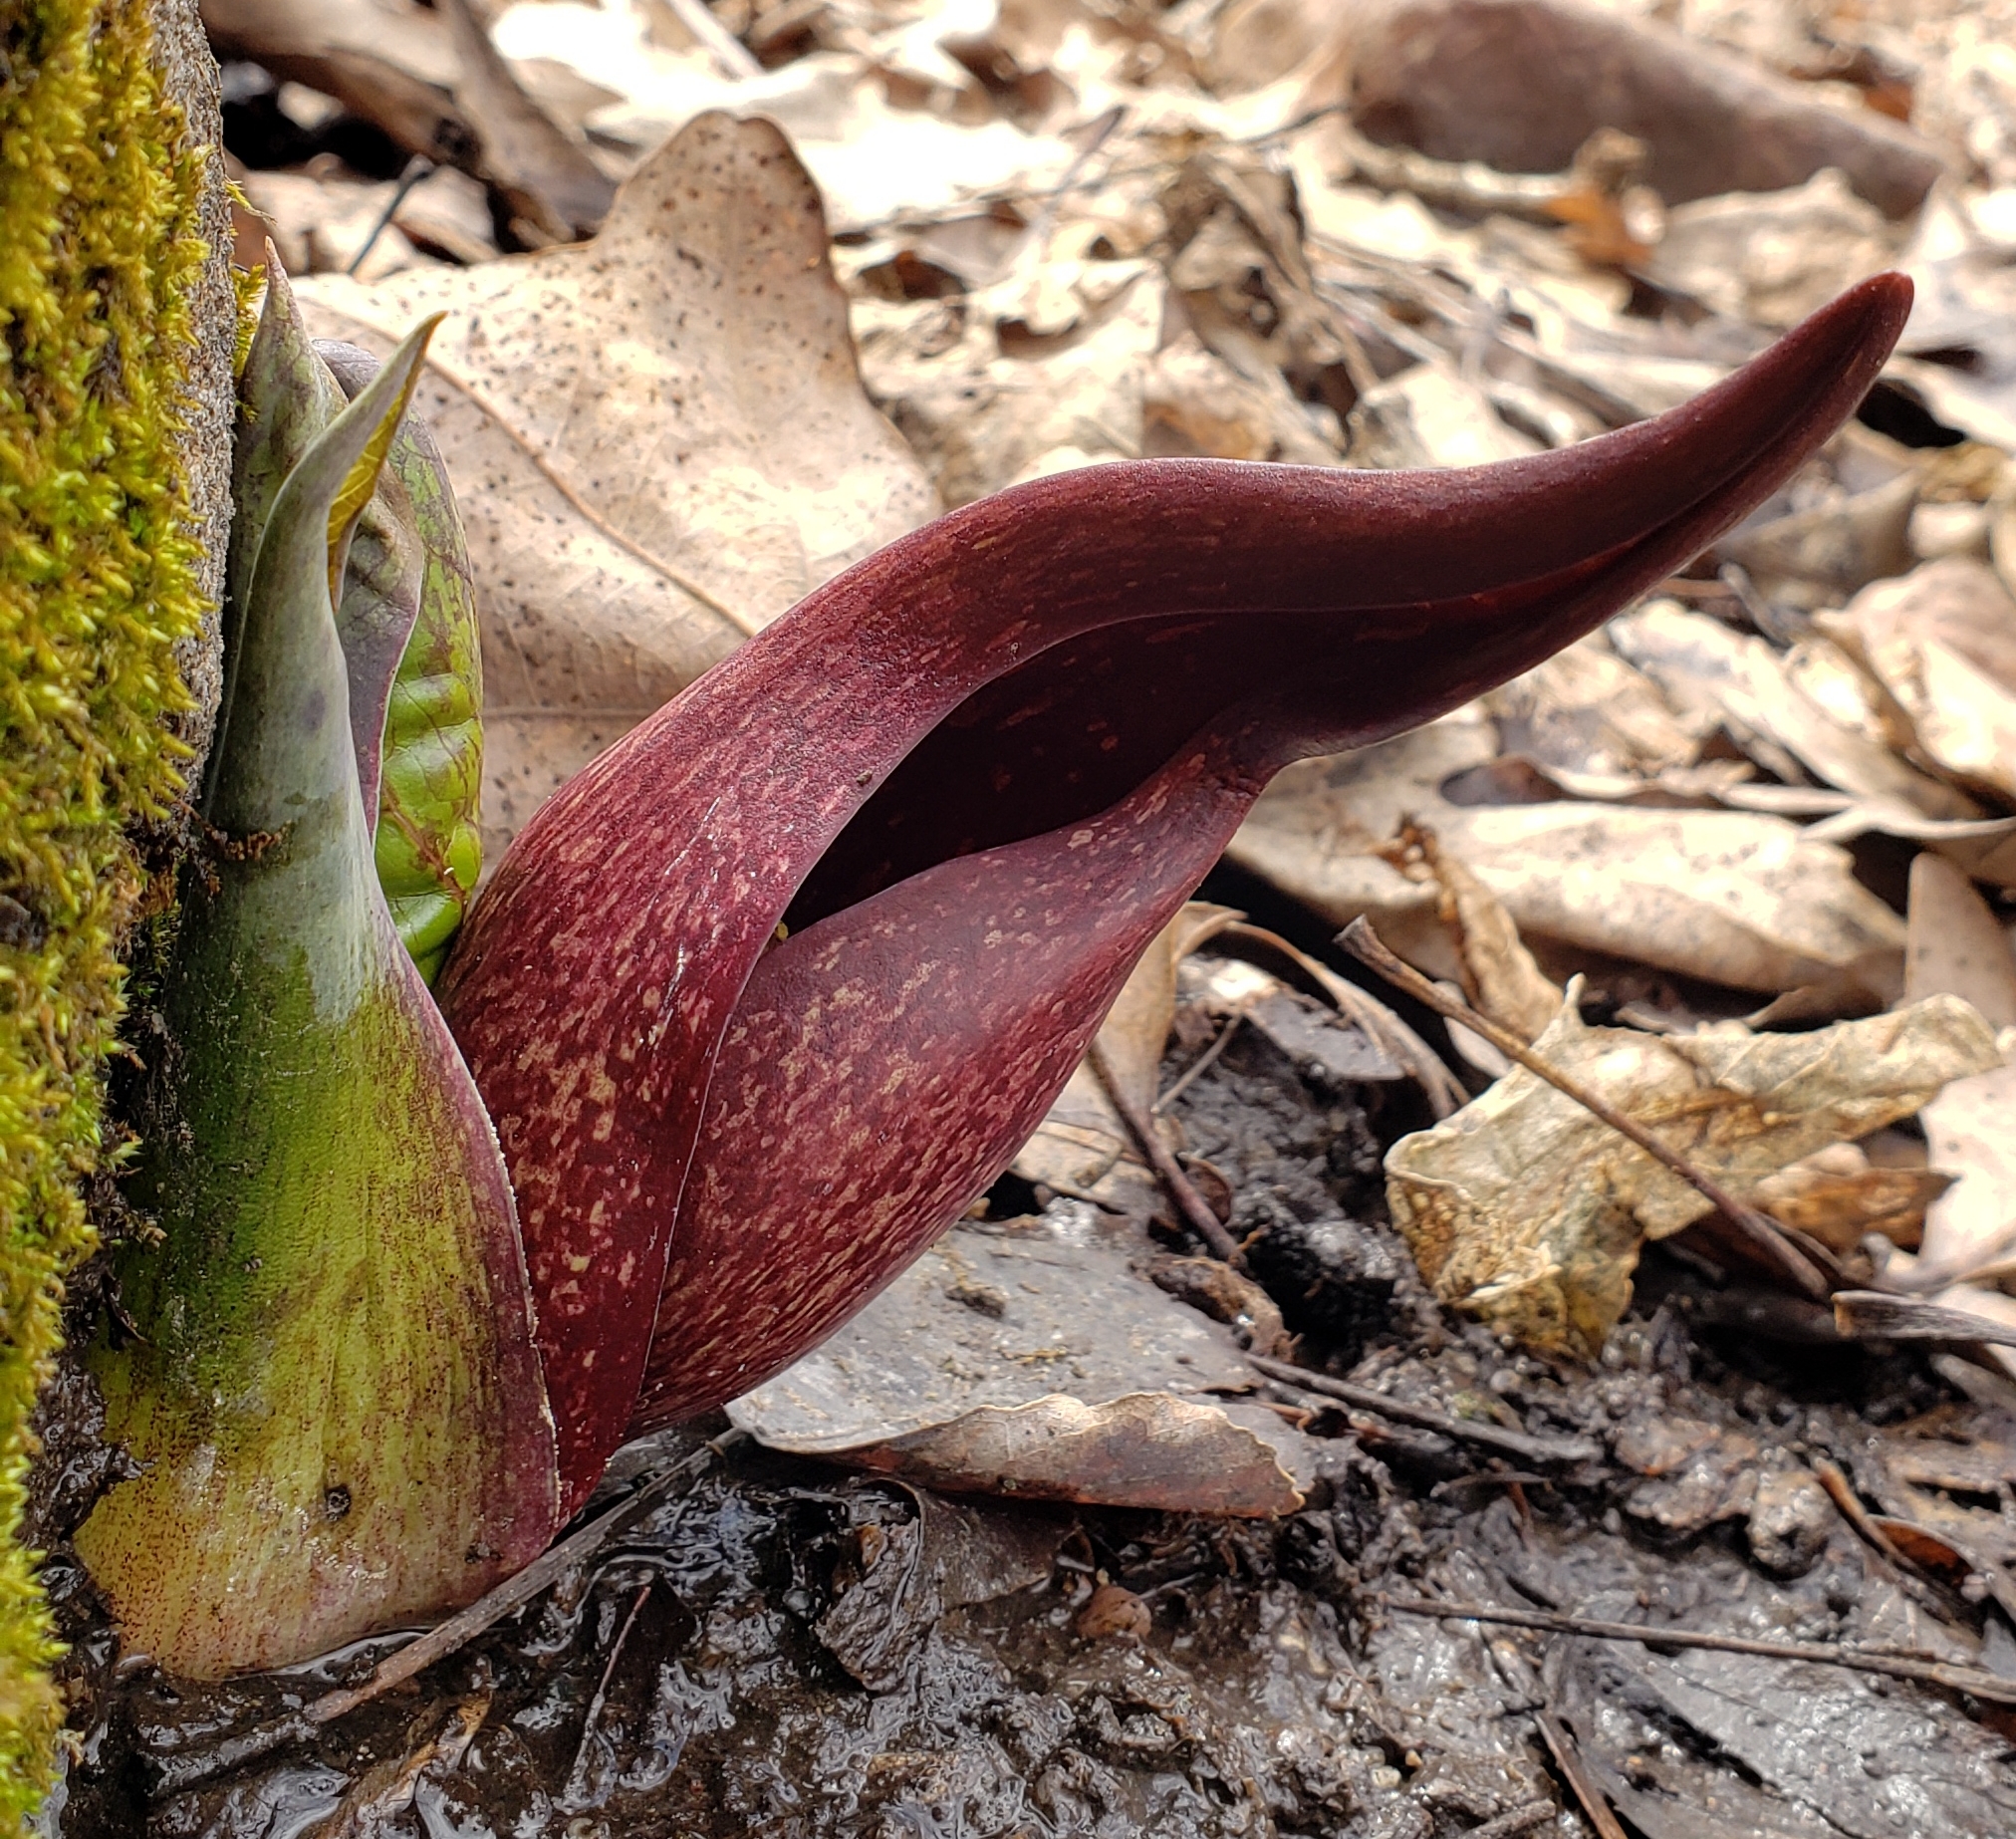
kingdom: Plantae
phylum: Tracheophyta
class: Liliopsida
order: Alismatales
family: Araceae
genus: Symplocarpus
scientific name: Symplocarpus foetidus
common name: Eastern skunk cabbage
